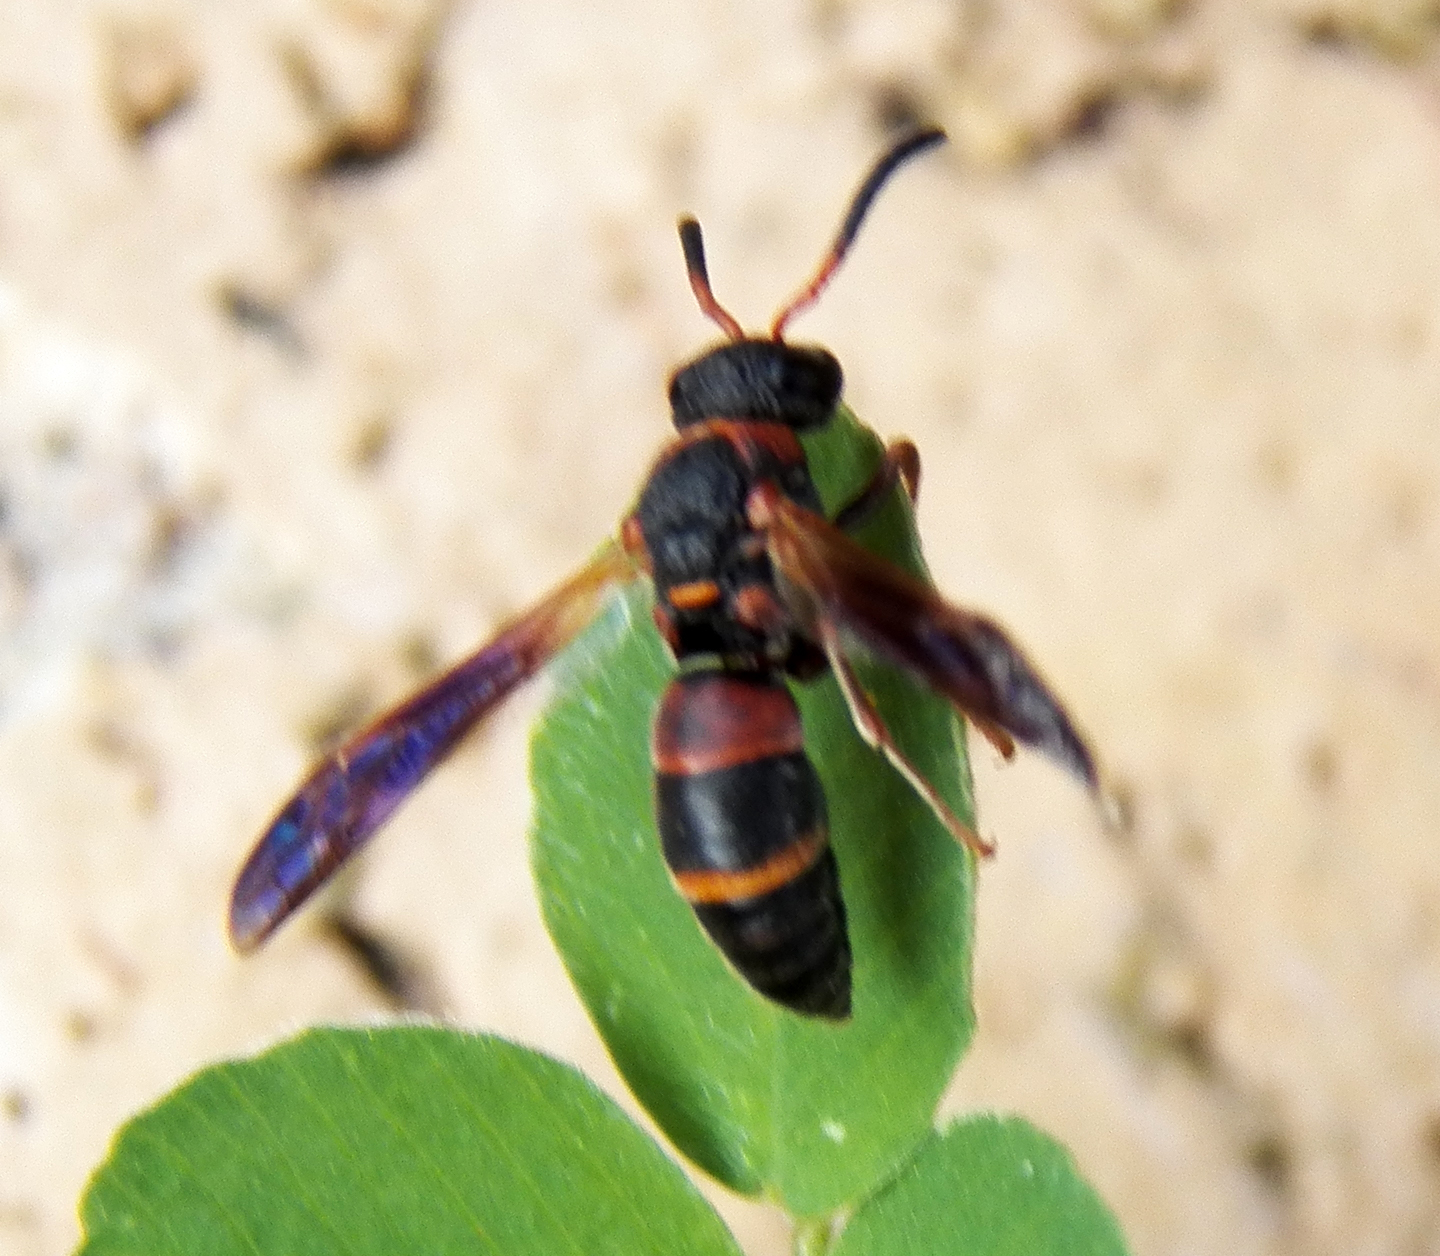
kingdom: Animalia
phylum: Arthropoda
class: Insecta
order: Hymenoptera
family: Eumenidae
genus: Pachodynerus
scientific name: Pachodynerus erynnis
